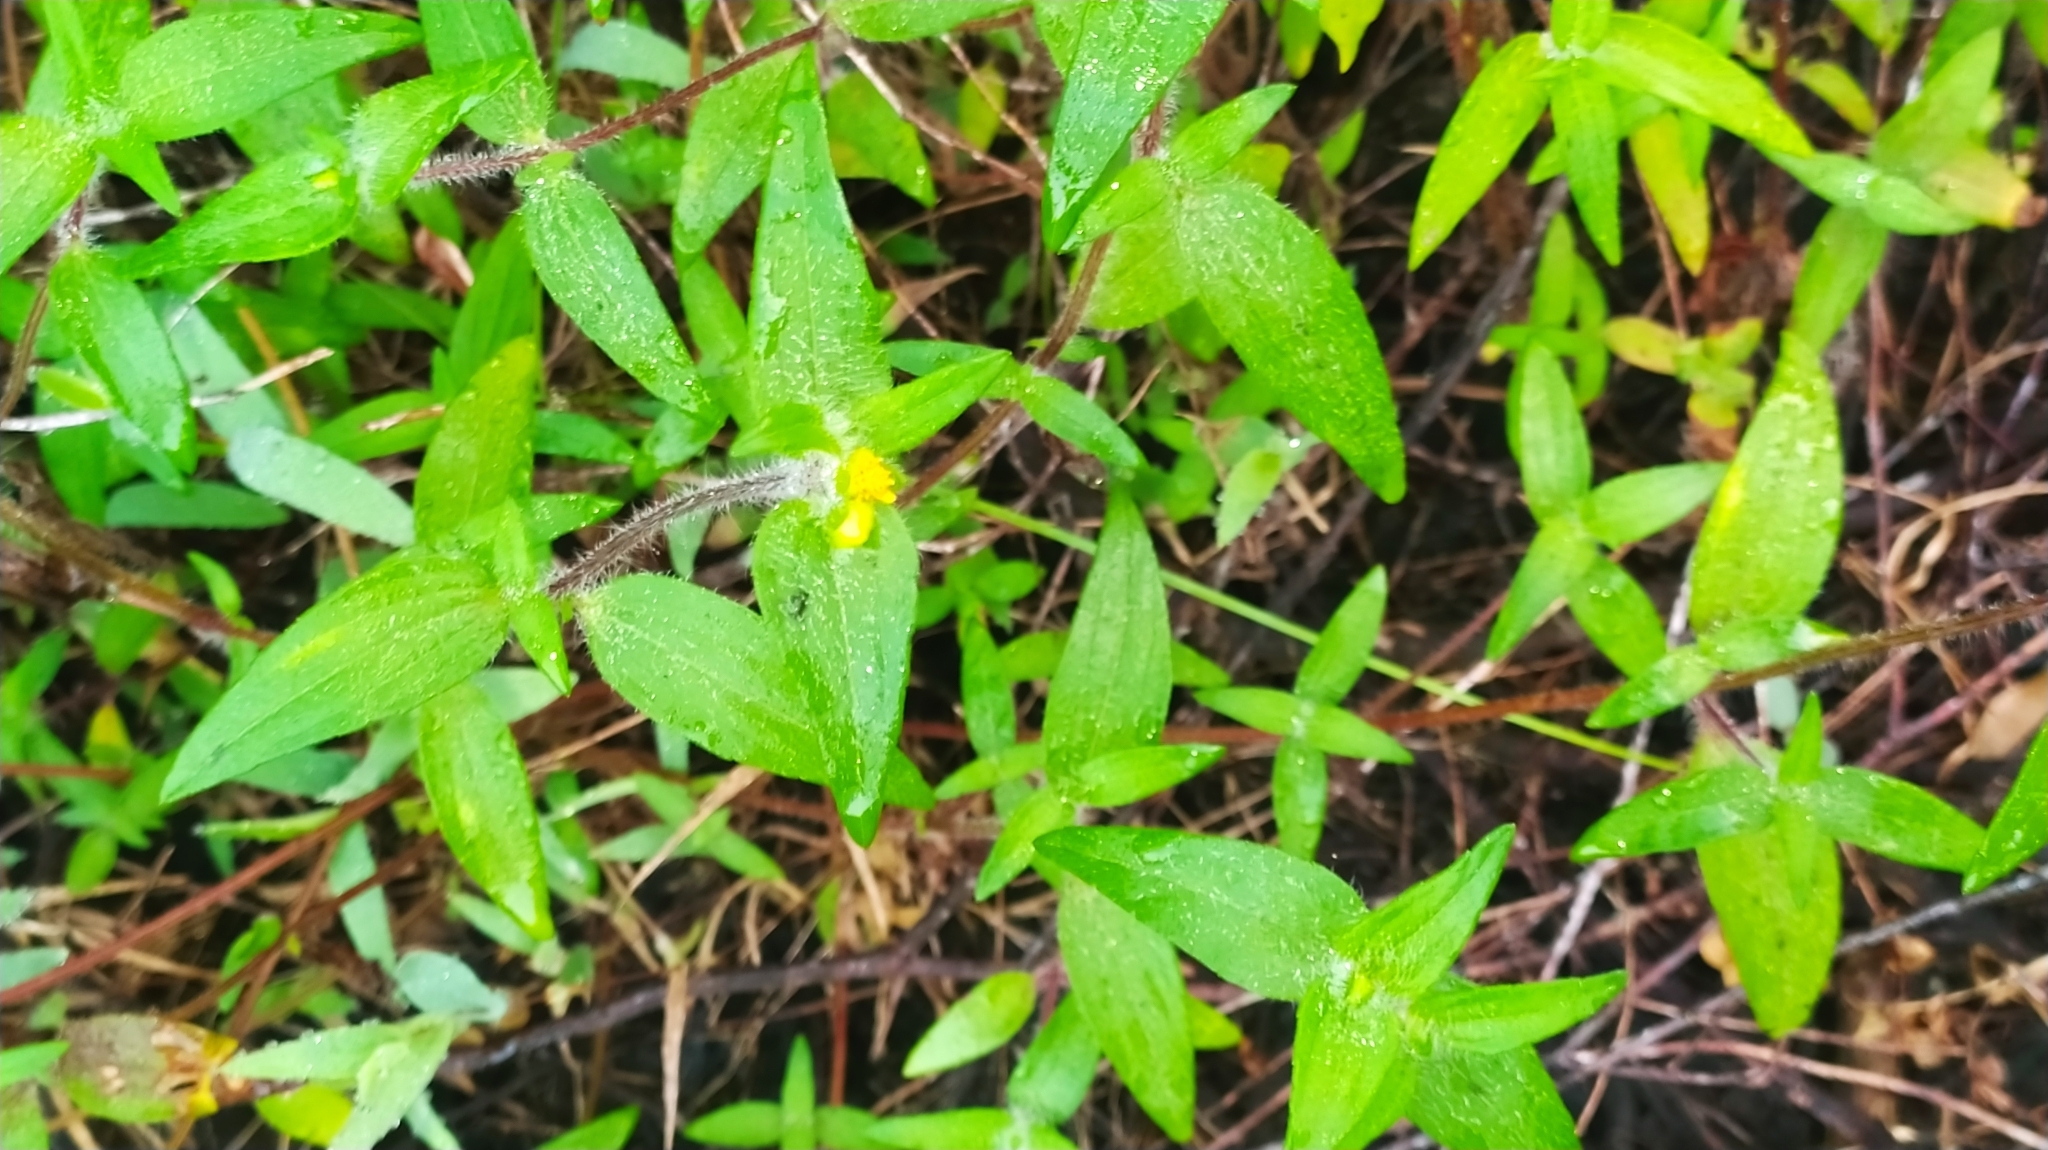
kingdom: Plantae
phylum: Tracheophyta
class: Magnoliopsida
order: Asterales
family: Asteraceae
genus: Unxia
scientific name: Unxia camphorata
